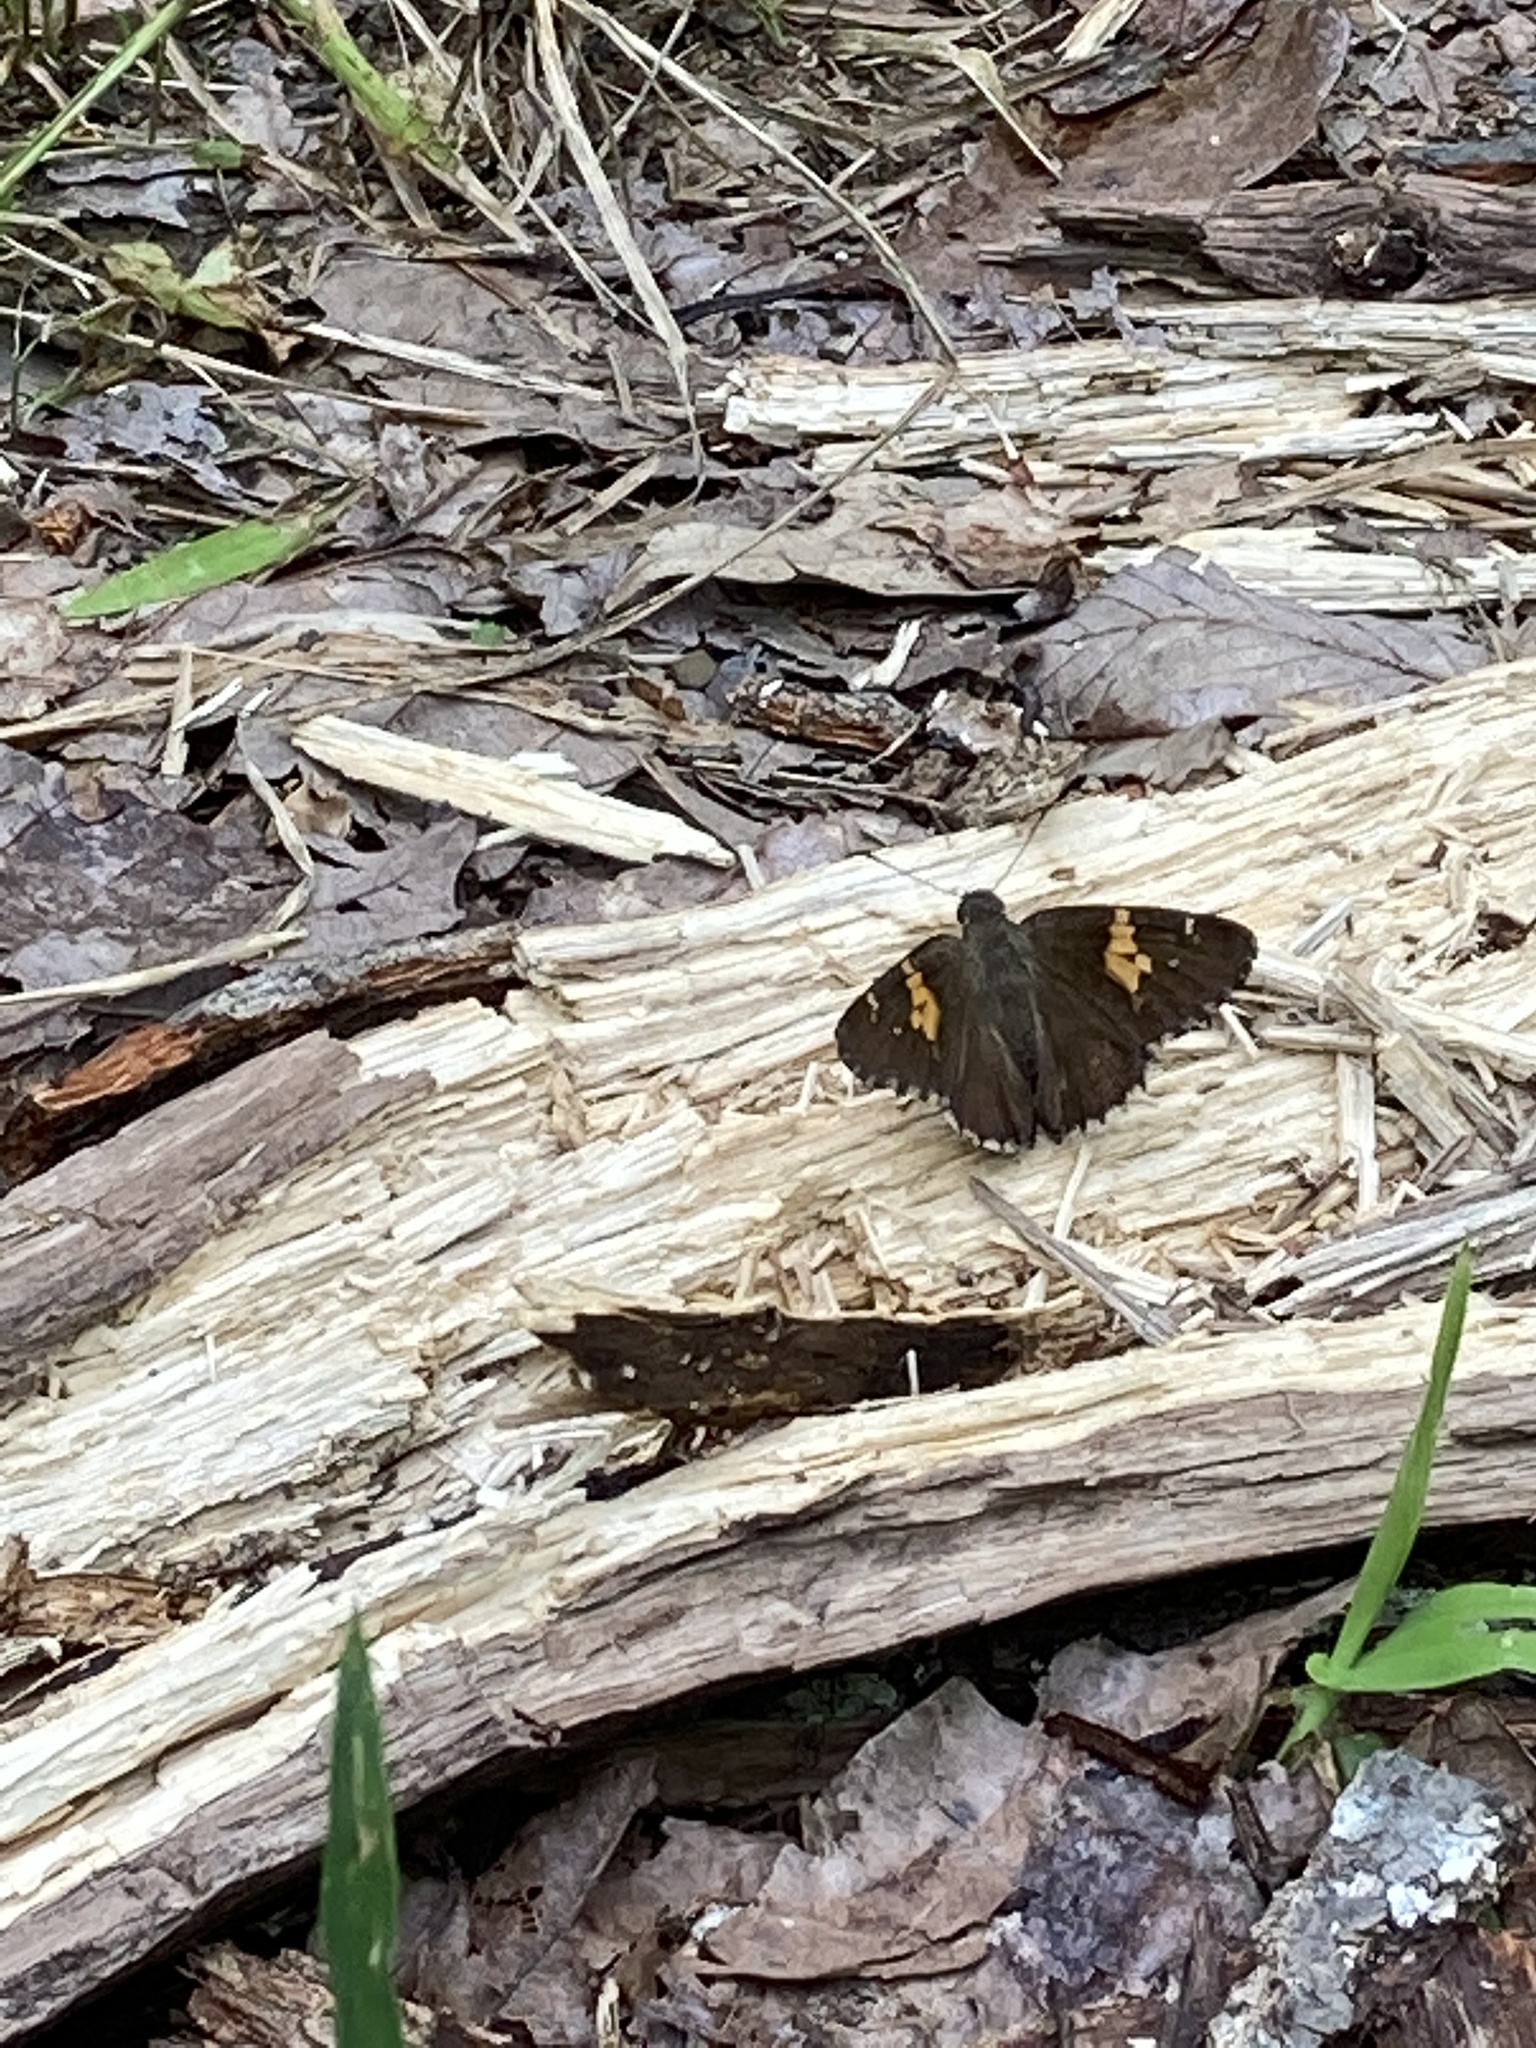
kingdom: Animalia
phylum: Arthropoda
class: Insecta
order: Lepidoptera
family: Hesperiidae
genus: Thorybes
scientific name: Thorybes lyciades
